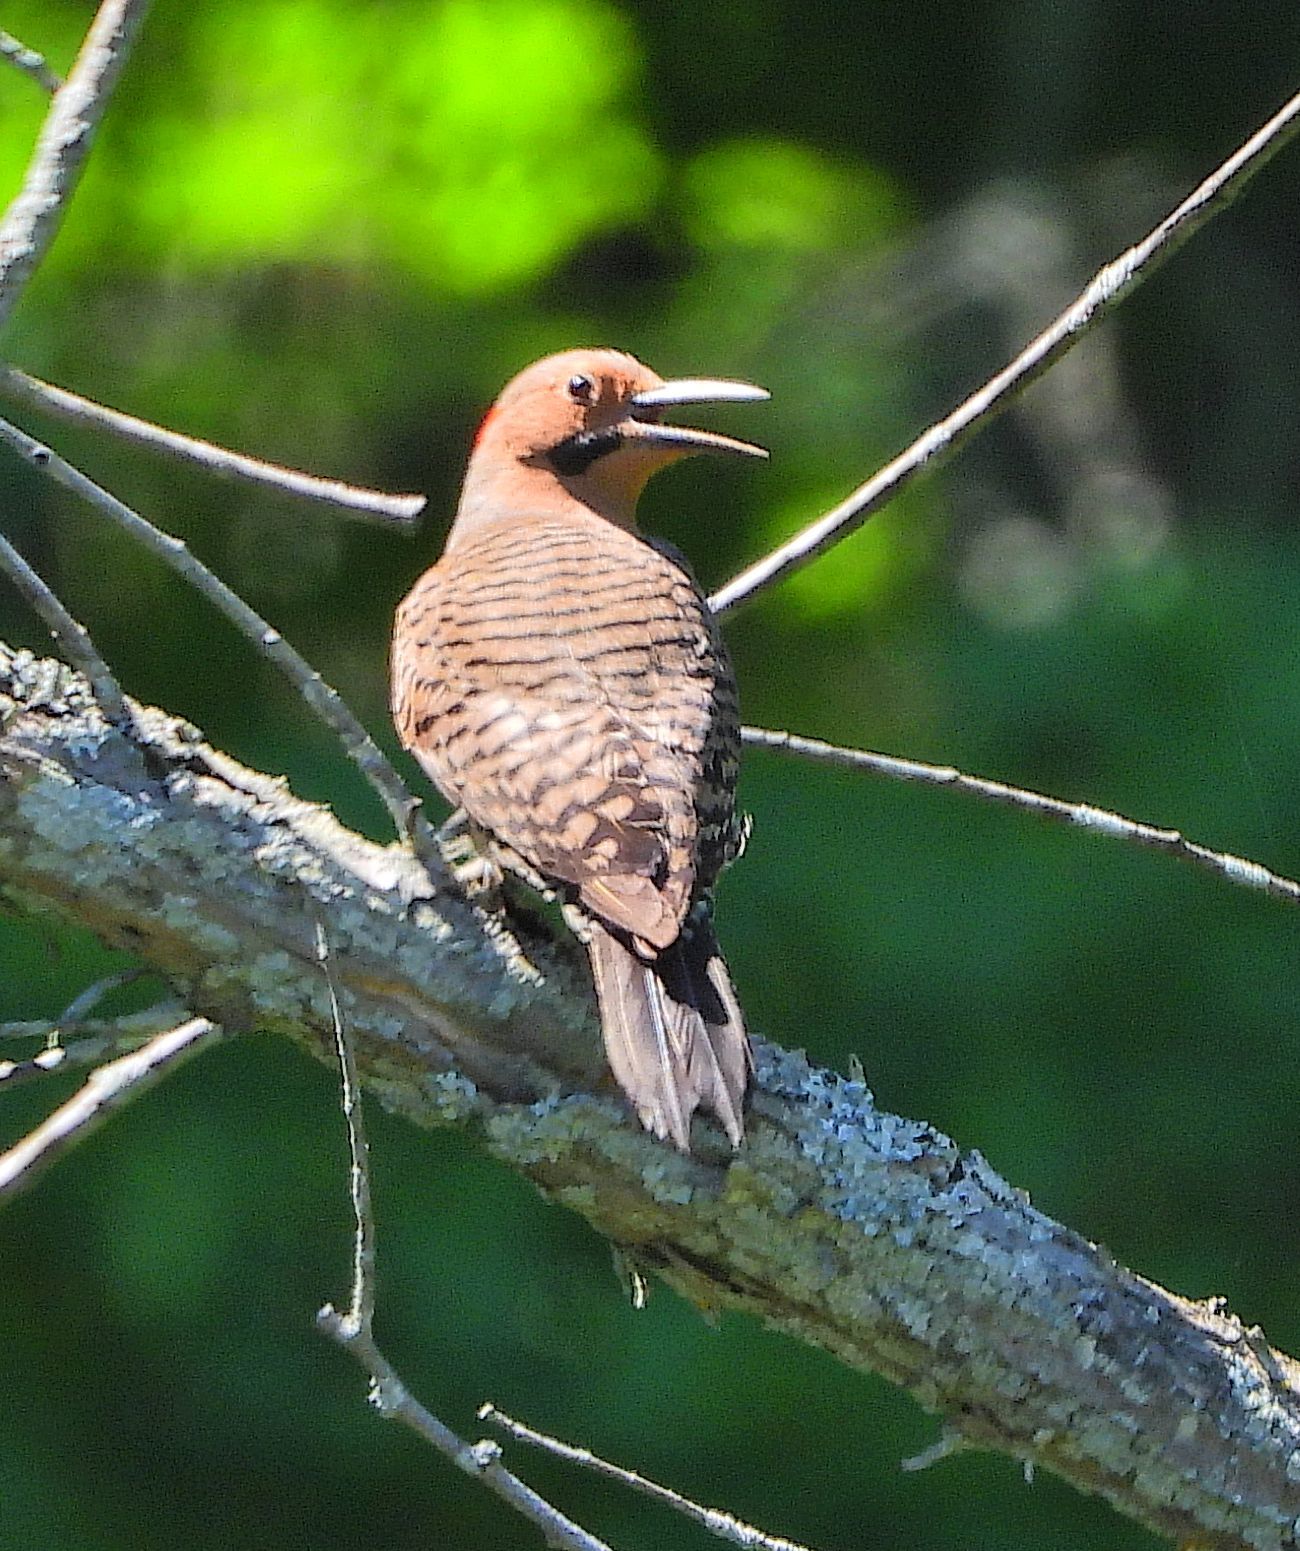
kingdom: Animalia
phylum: Chordata
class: Aves
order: Piciformes
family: Picidae
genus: Colaptes
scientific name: Colaptes auratus
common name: Northern flicker
